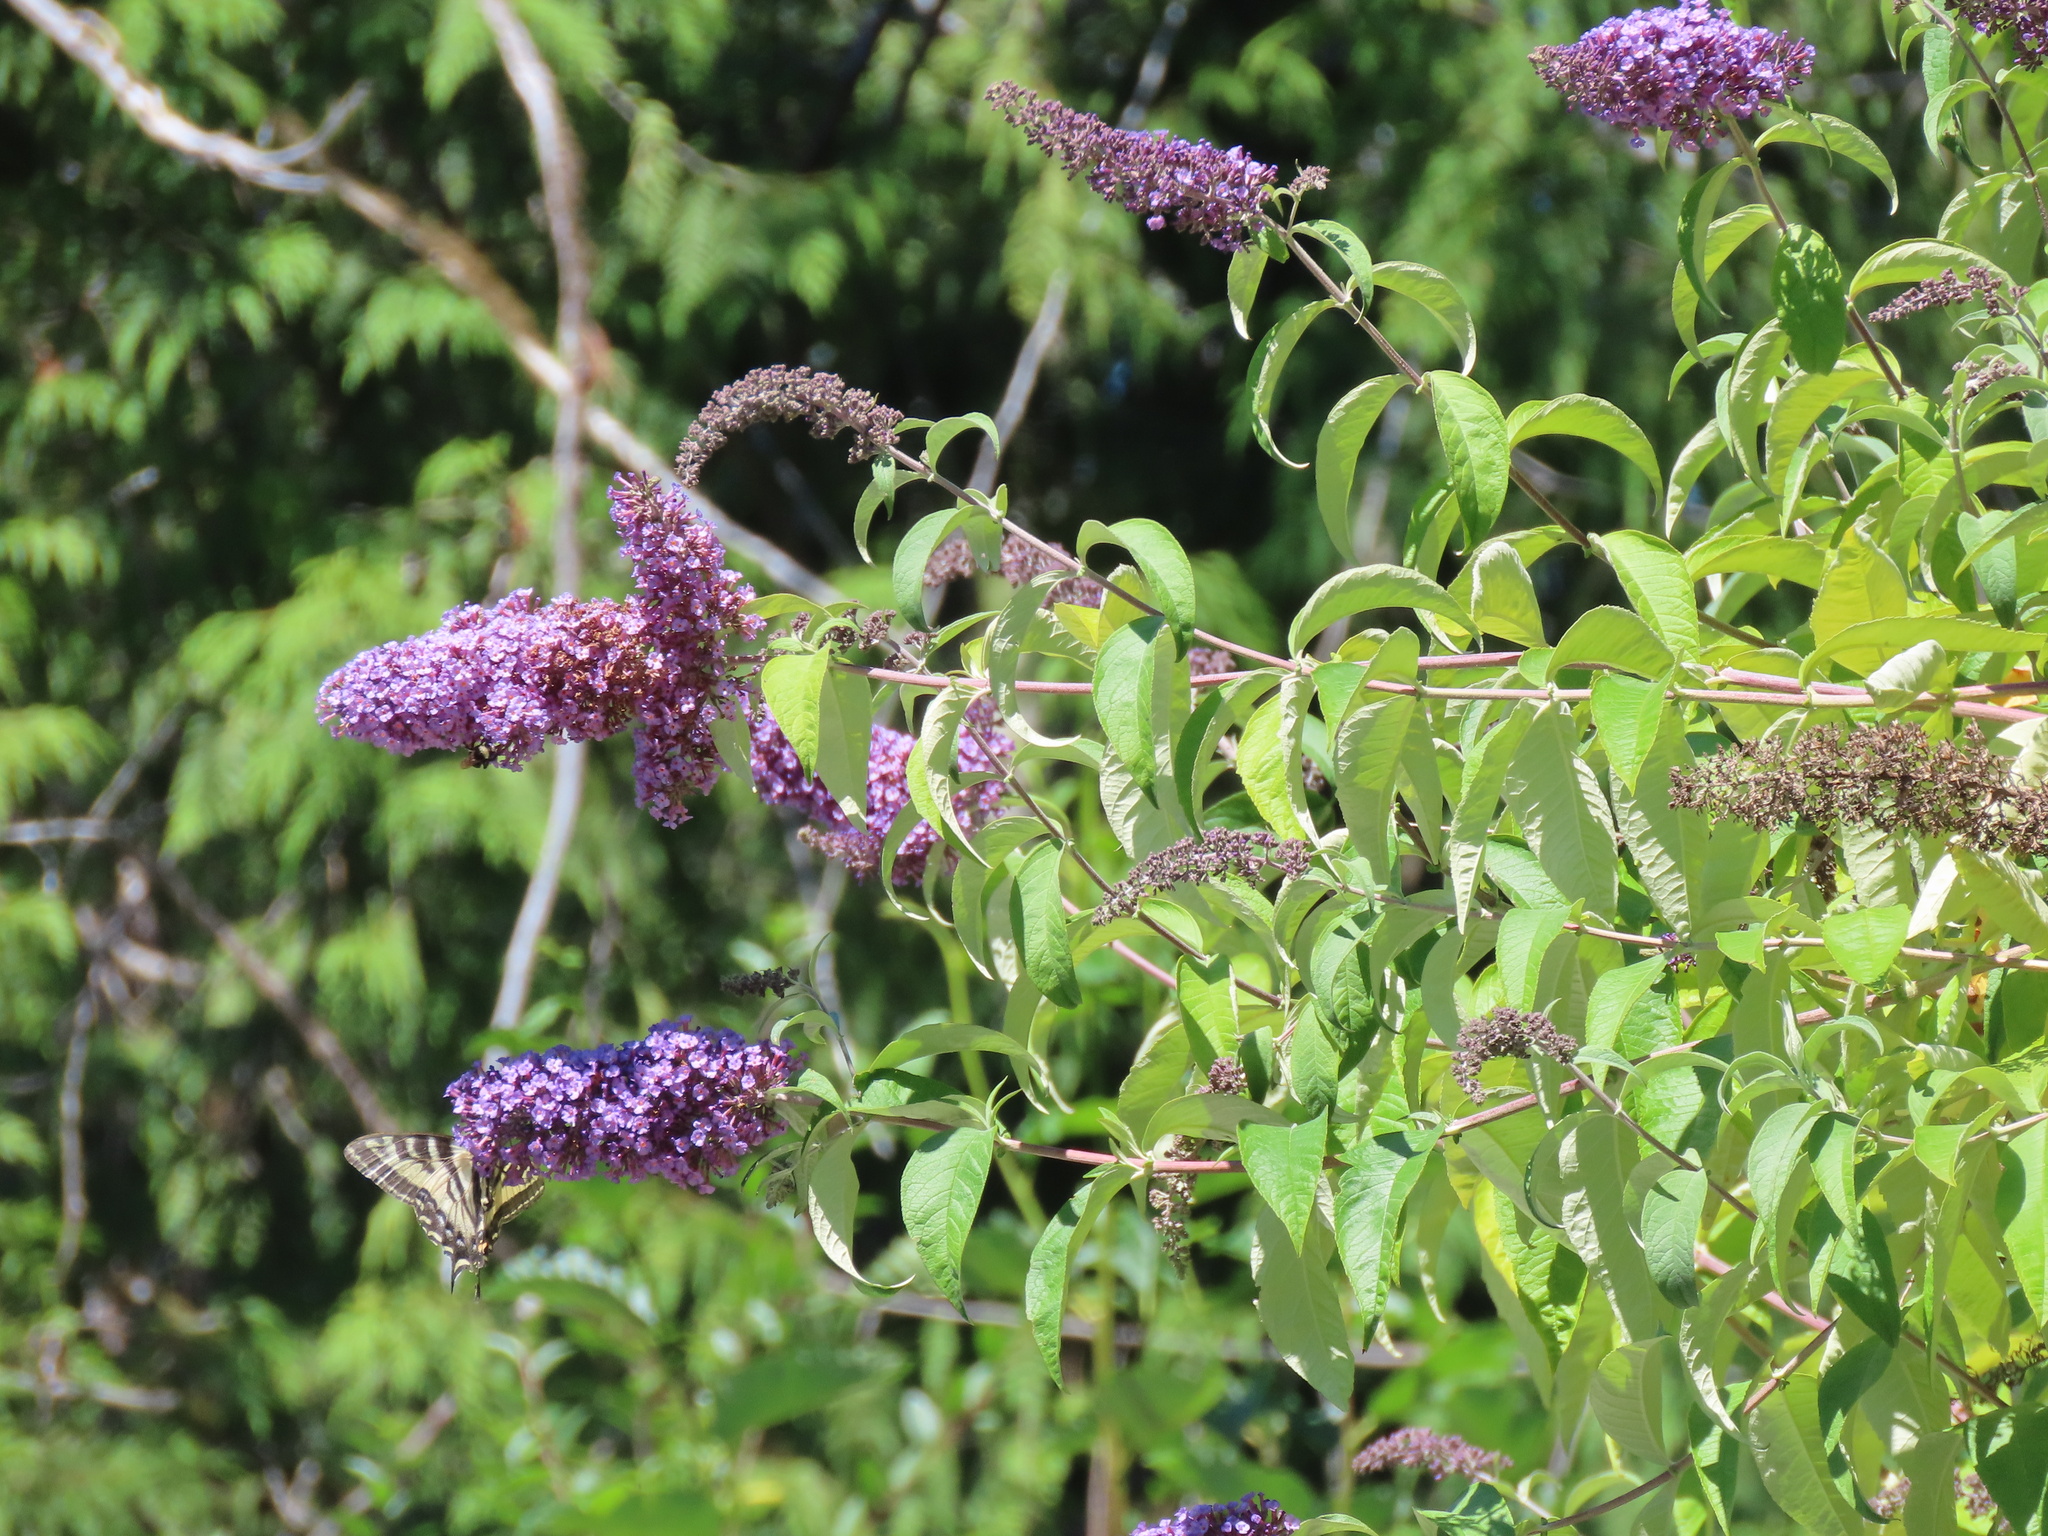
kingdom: Plantae
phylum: Tracheophyta
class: Magnoliopsida
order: Lamiales
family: Scrophulariaceae
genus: Buddleja
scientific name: Buddleja davidii
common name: Butterfly-bush
